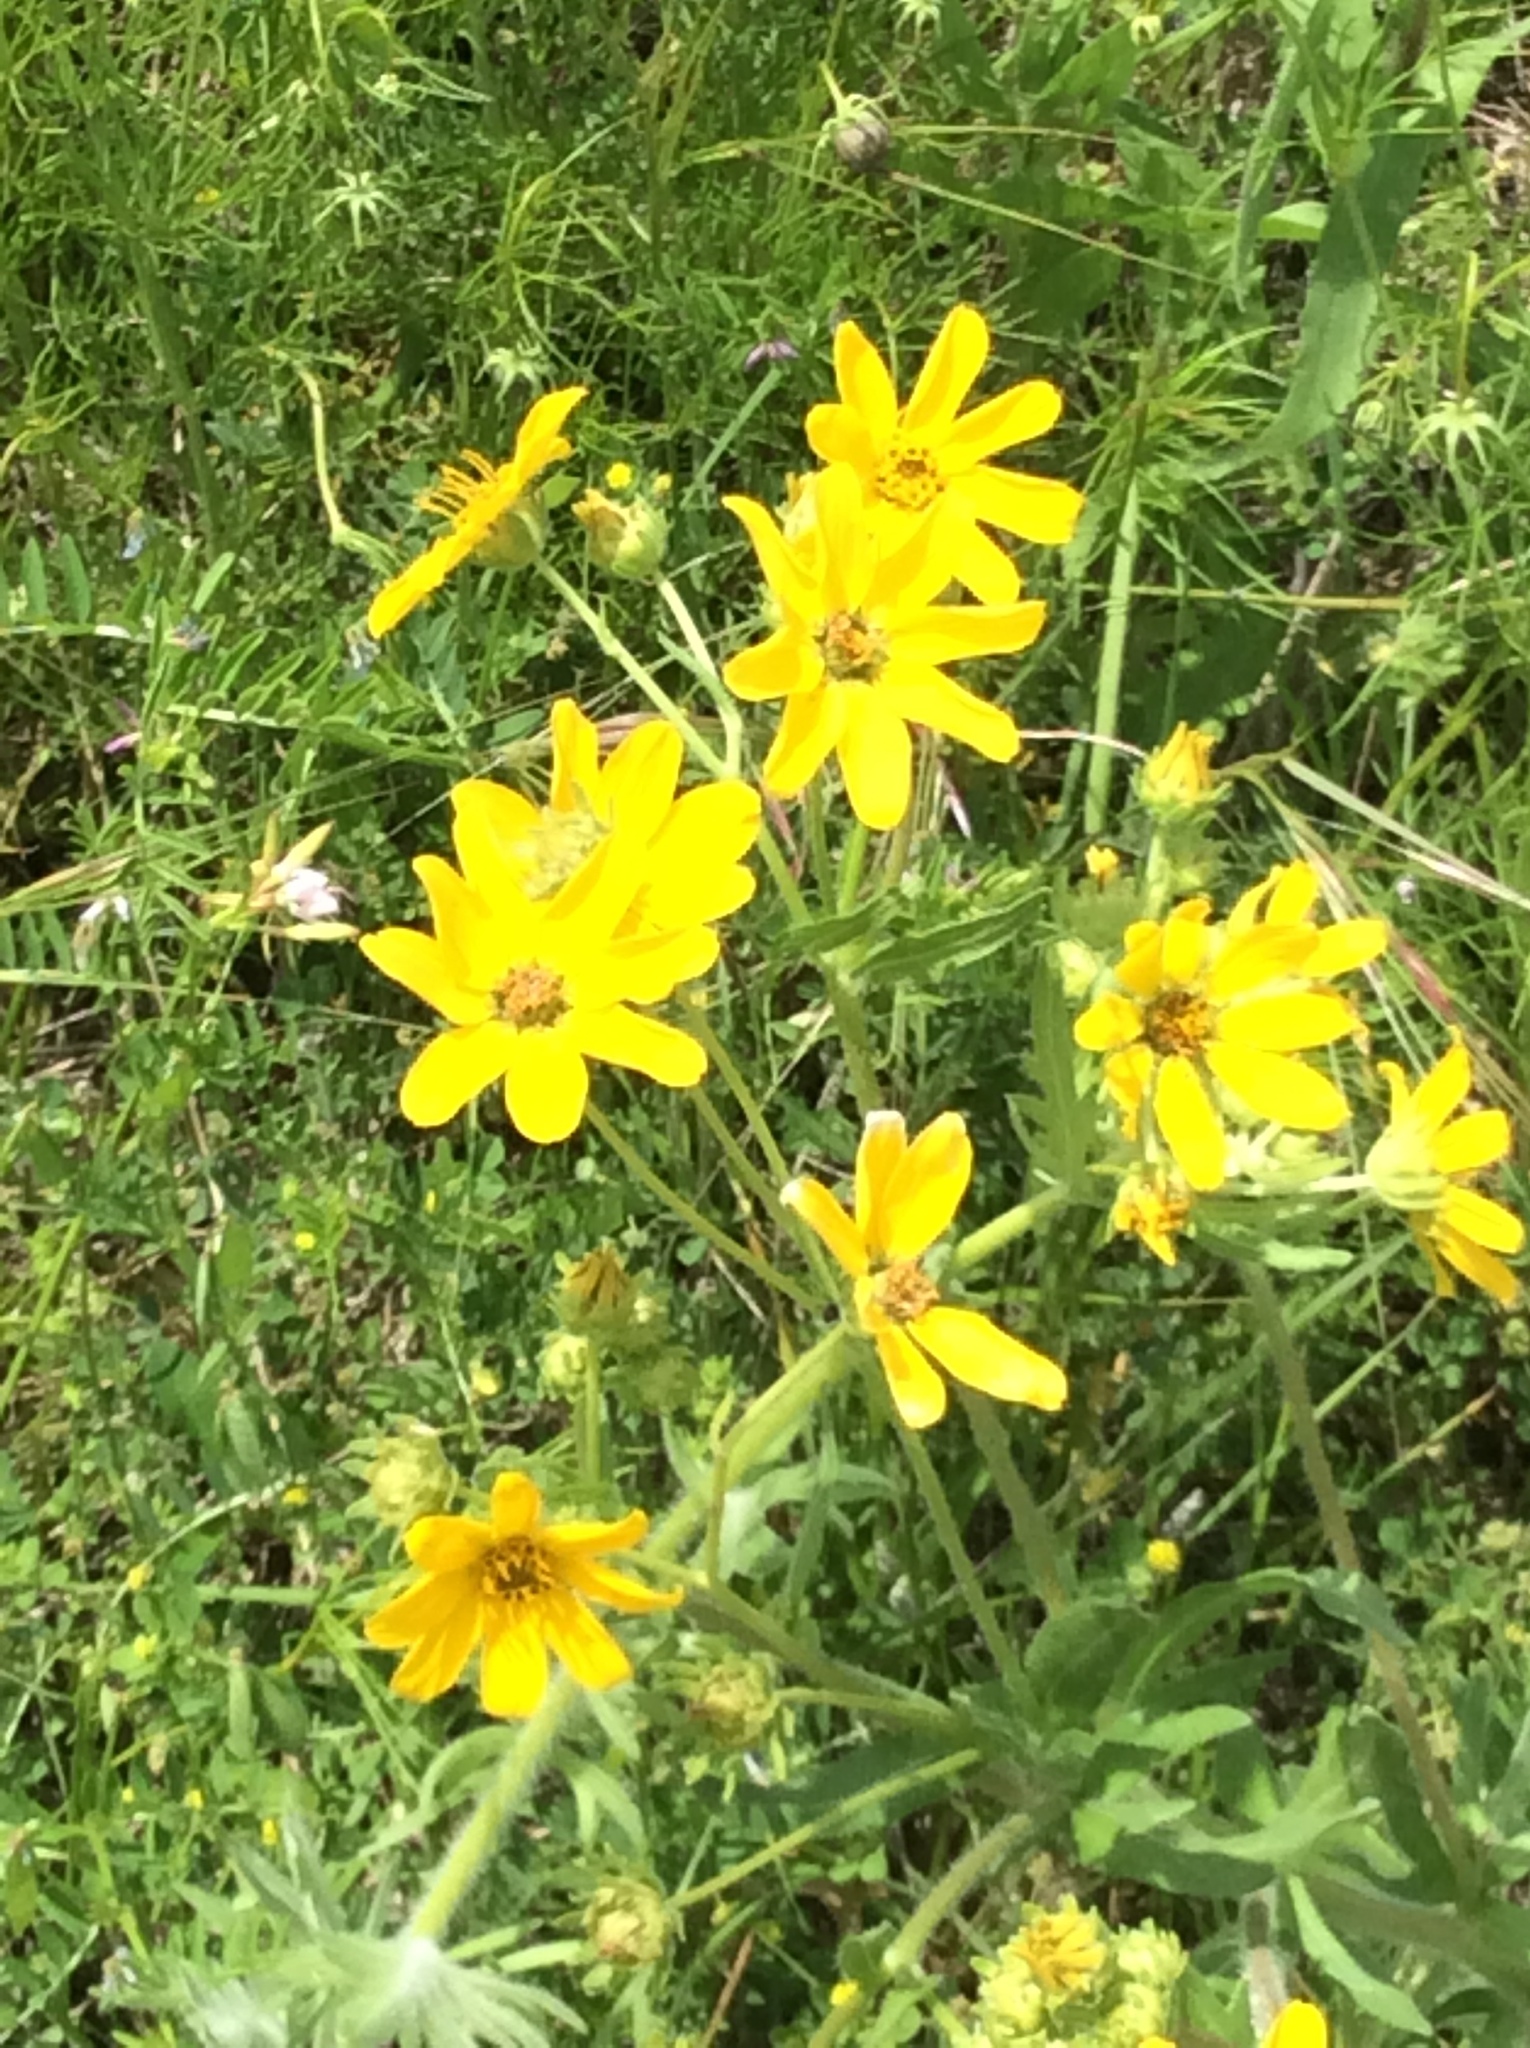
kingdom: Plantae
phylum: Tracheophyta
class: Magnoliopsida
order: Asterales
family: Asteraceae
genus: Engelmannia
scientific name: Engelmannia peristenia
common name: Engelmann's daisy
